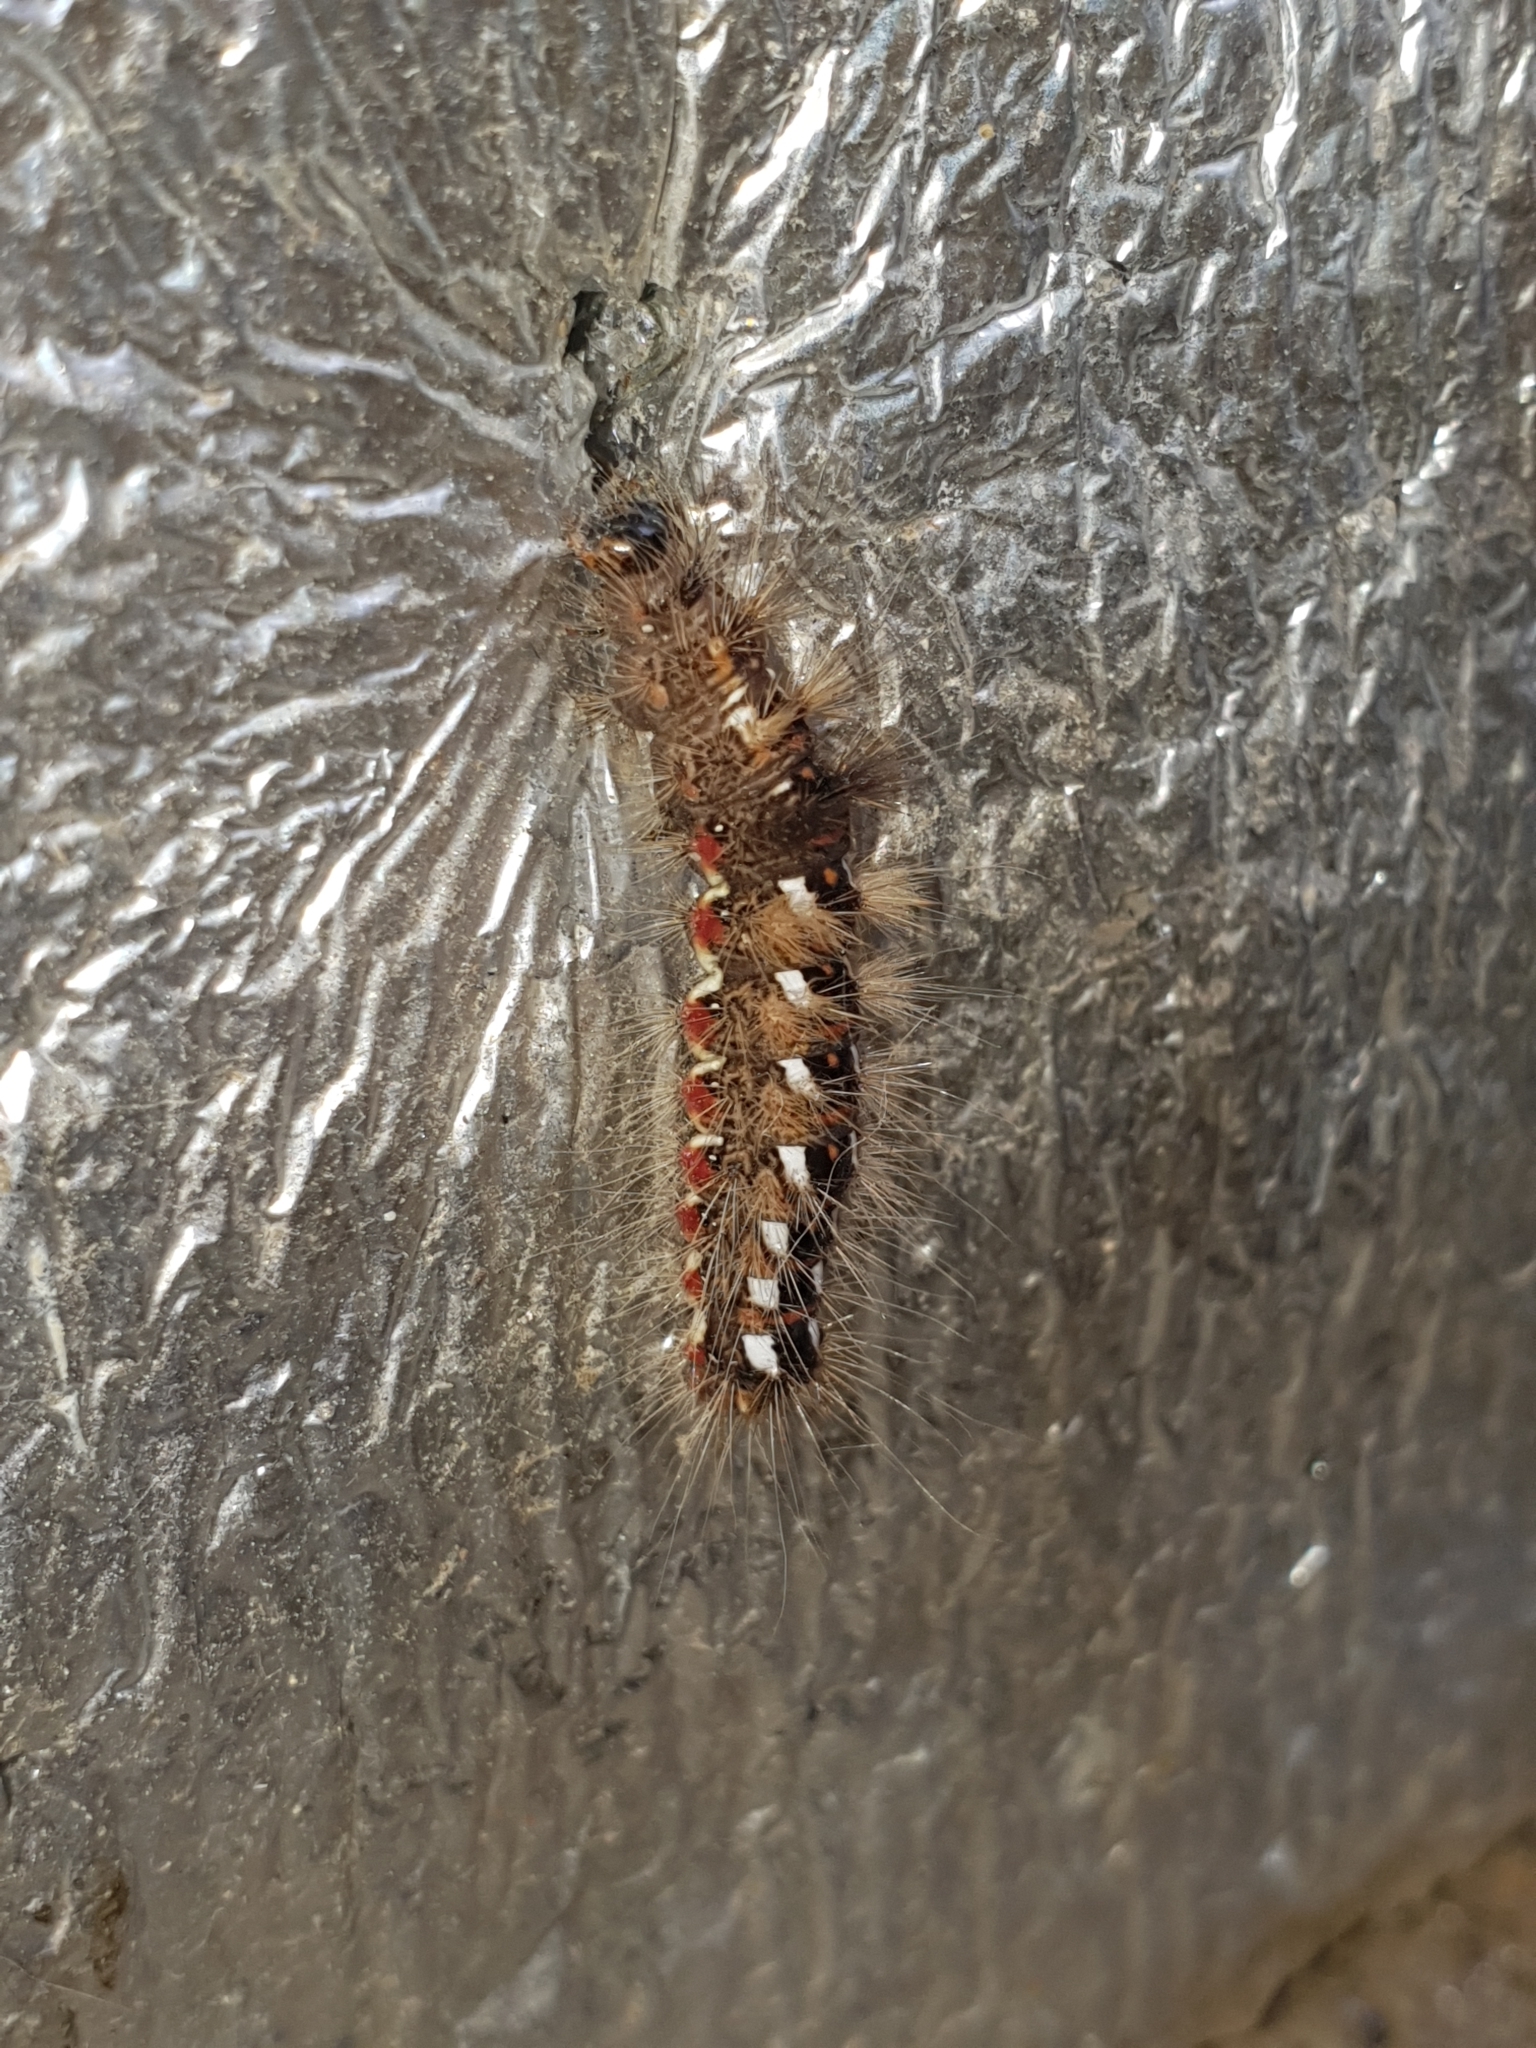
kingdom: Animalia
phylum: Arthropoda
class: Insecta
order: Lepidoptera
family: Noctuidae
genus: Acronicta
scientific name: Acronicta rumicis
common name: Knot grass
